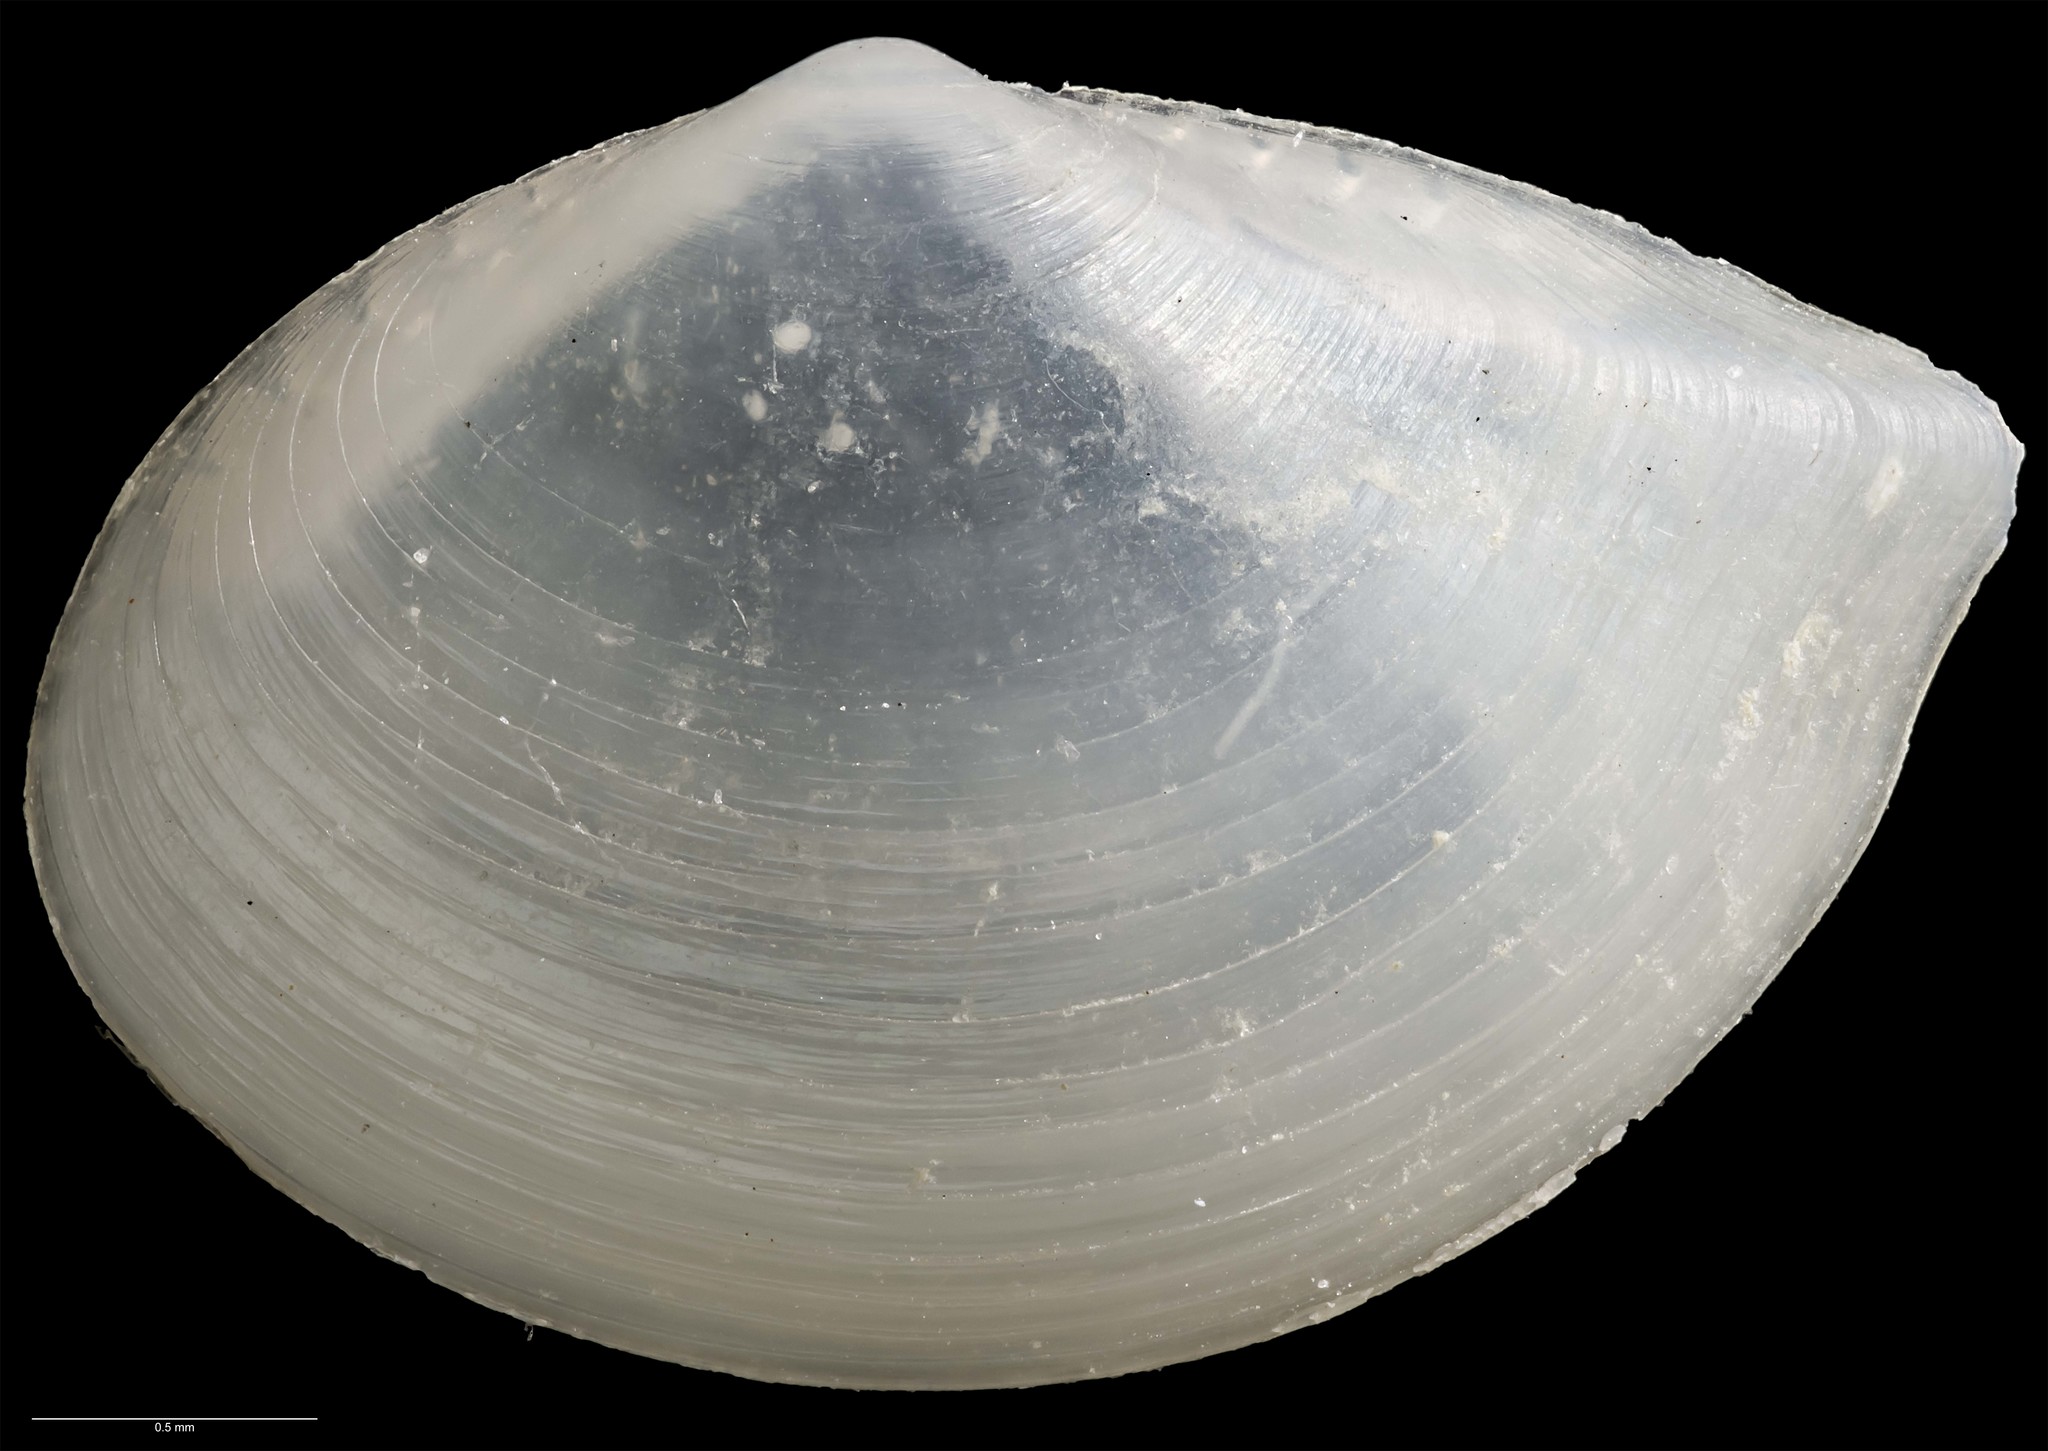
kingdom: Animalia
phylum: Mollusca
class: Bivalvia
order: Nuculanida
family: Nuculanidae
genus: Ledella
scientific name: Ledella finlayi
